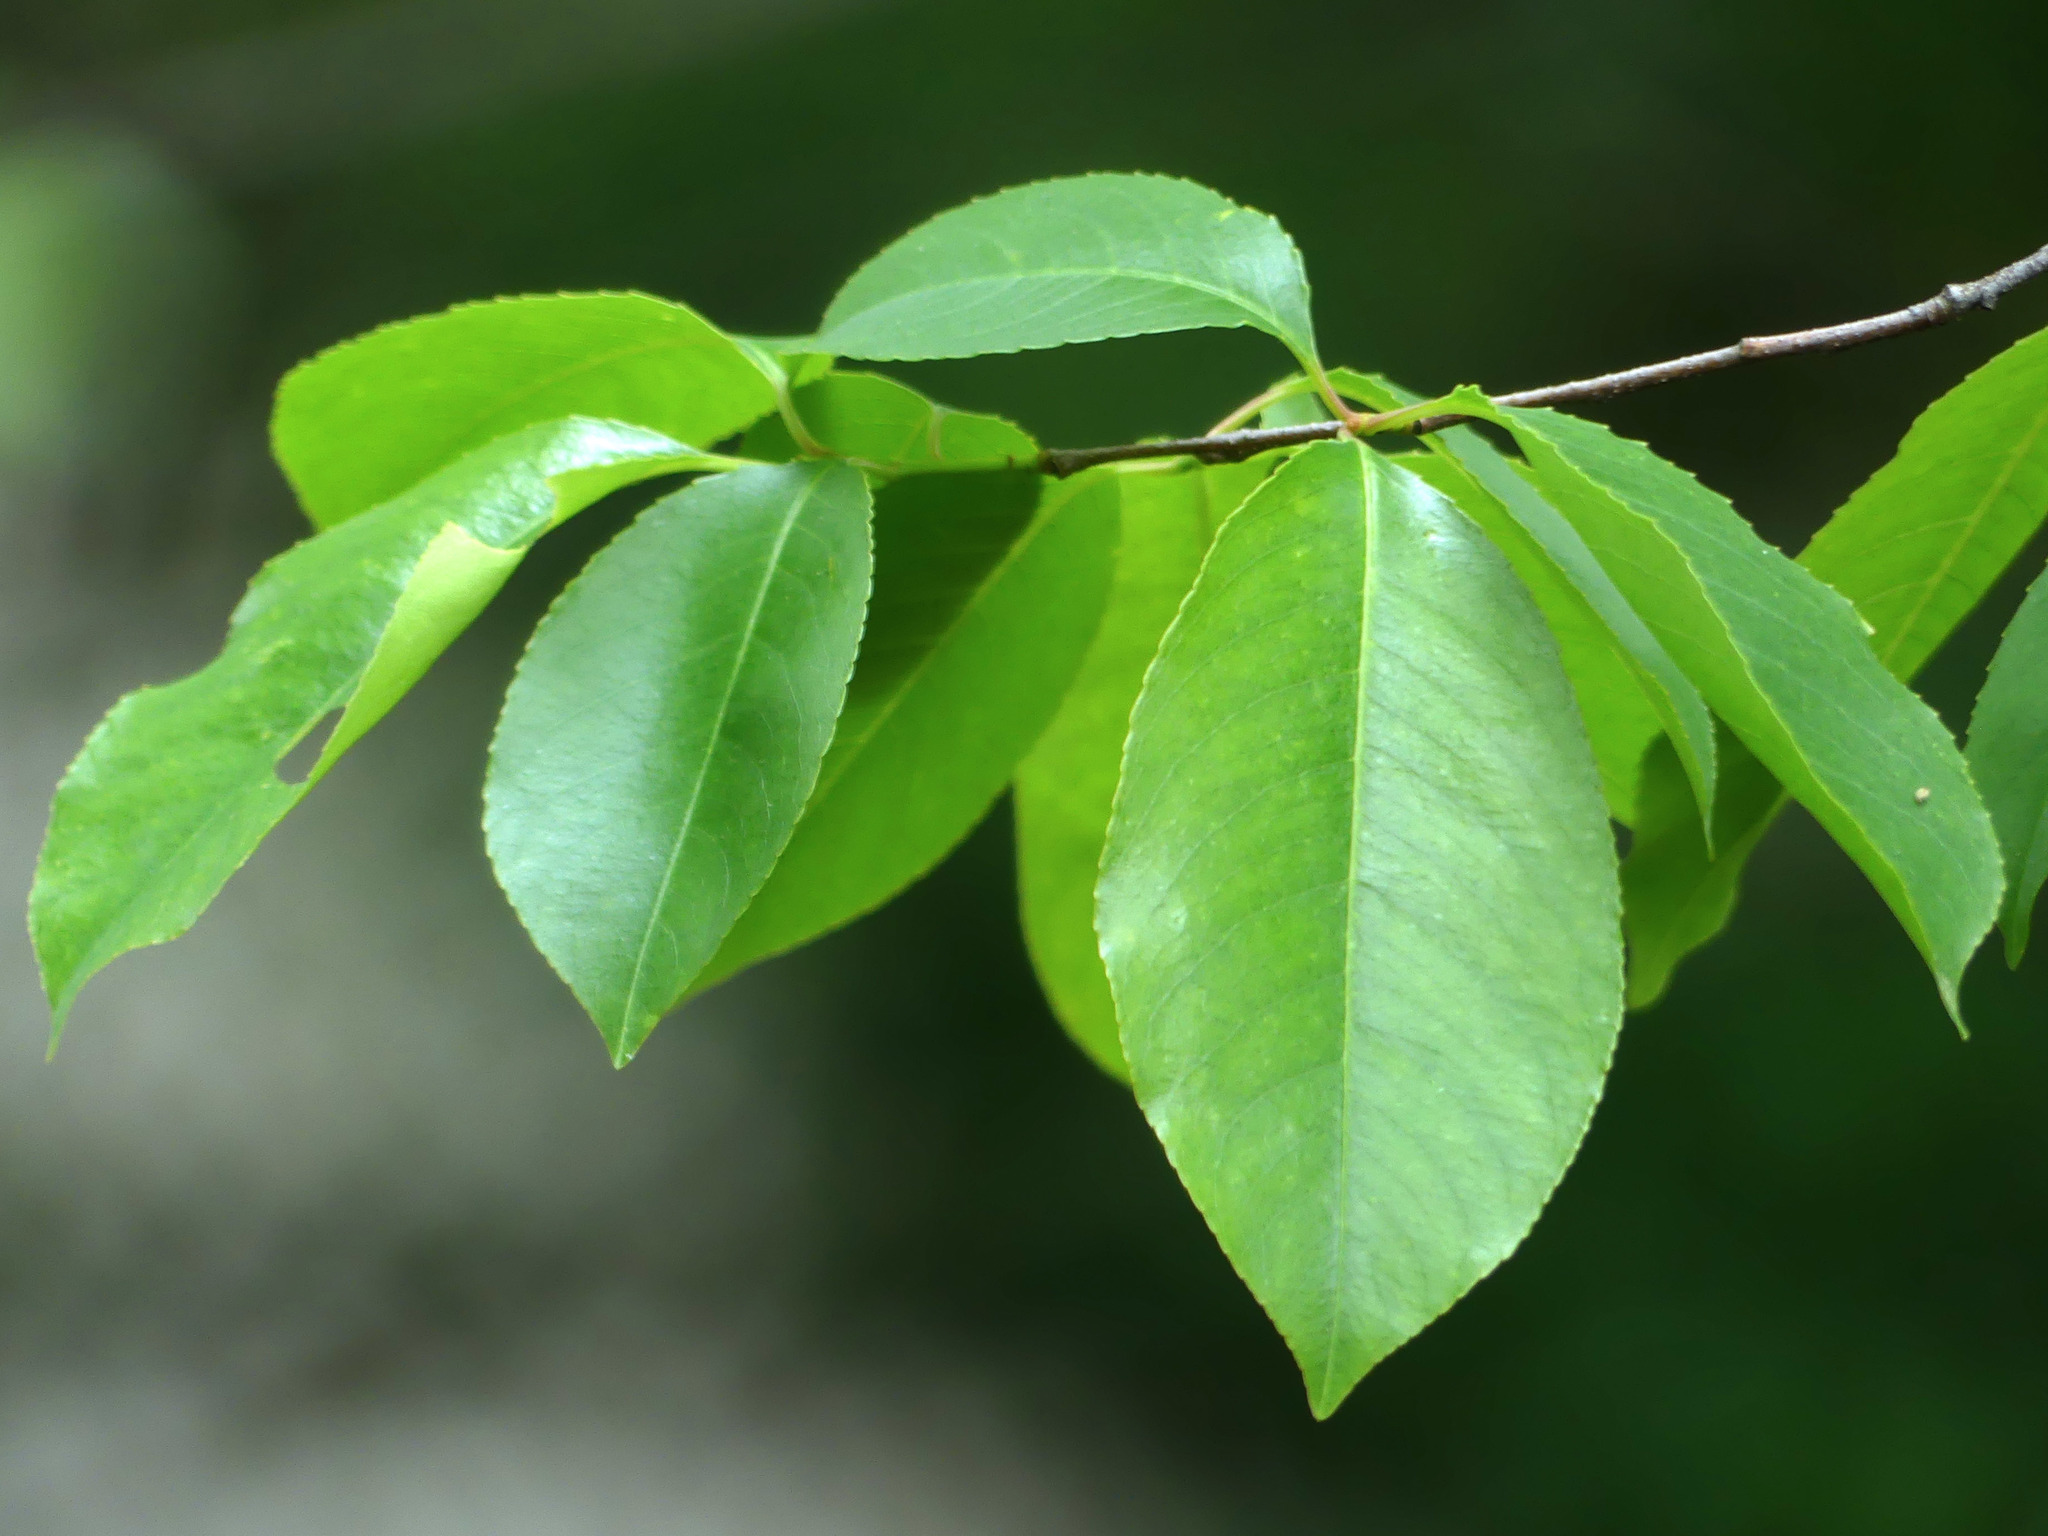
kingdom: Plantae
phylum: Tracheophyta
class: Magnoliopsida
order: Rosales
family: Rosaceae
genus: Prunus
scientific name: Prunus serotina
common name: Black cherry
